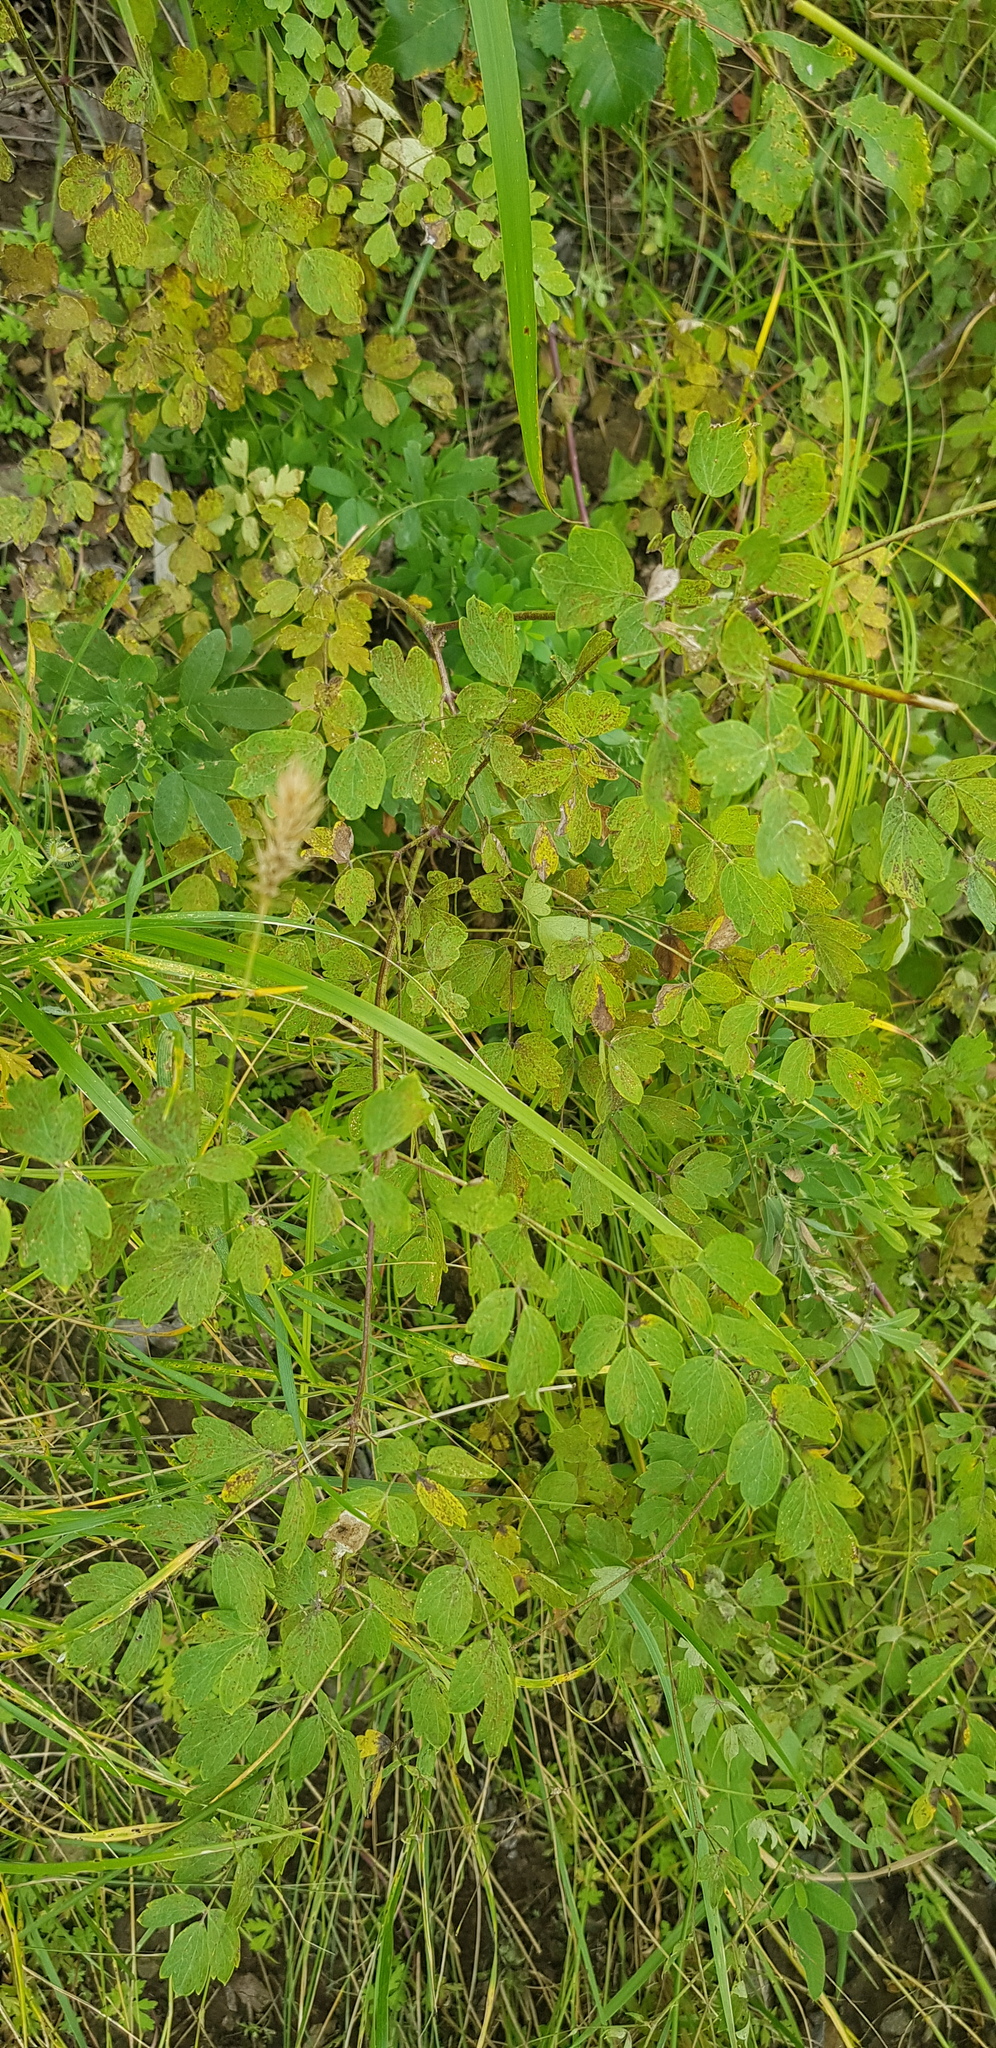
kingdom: Plantae
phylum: Tracheophyta
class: Magnoliopsida
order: Ranunculales
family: Ranunculaceae
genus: Thalictrum
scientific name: Thalictrum minus
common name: Lesser meadow-rue
